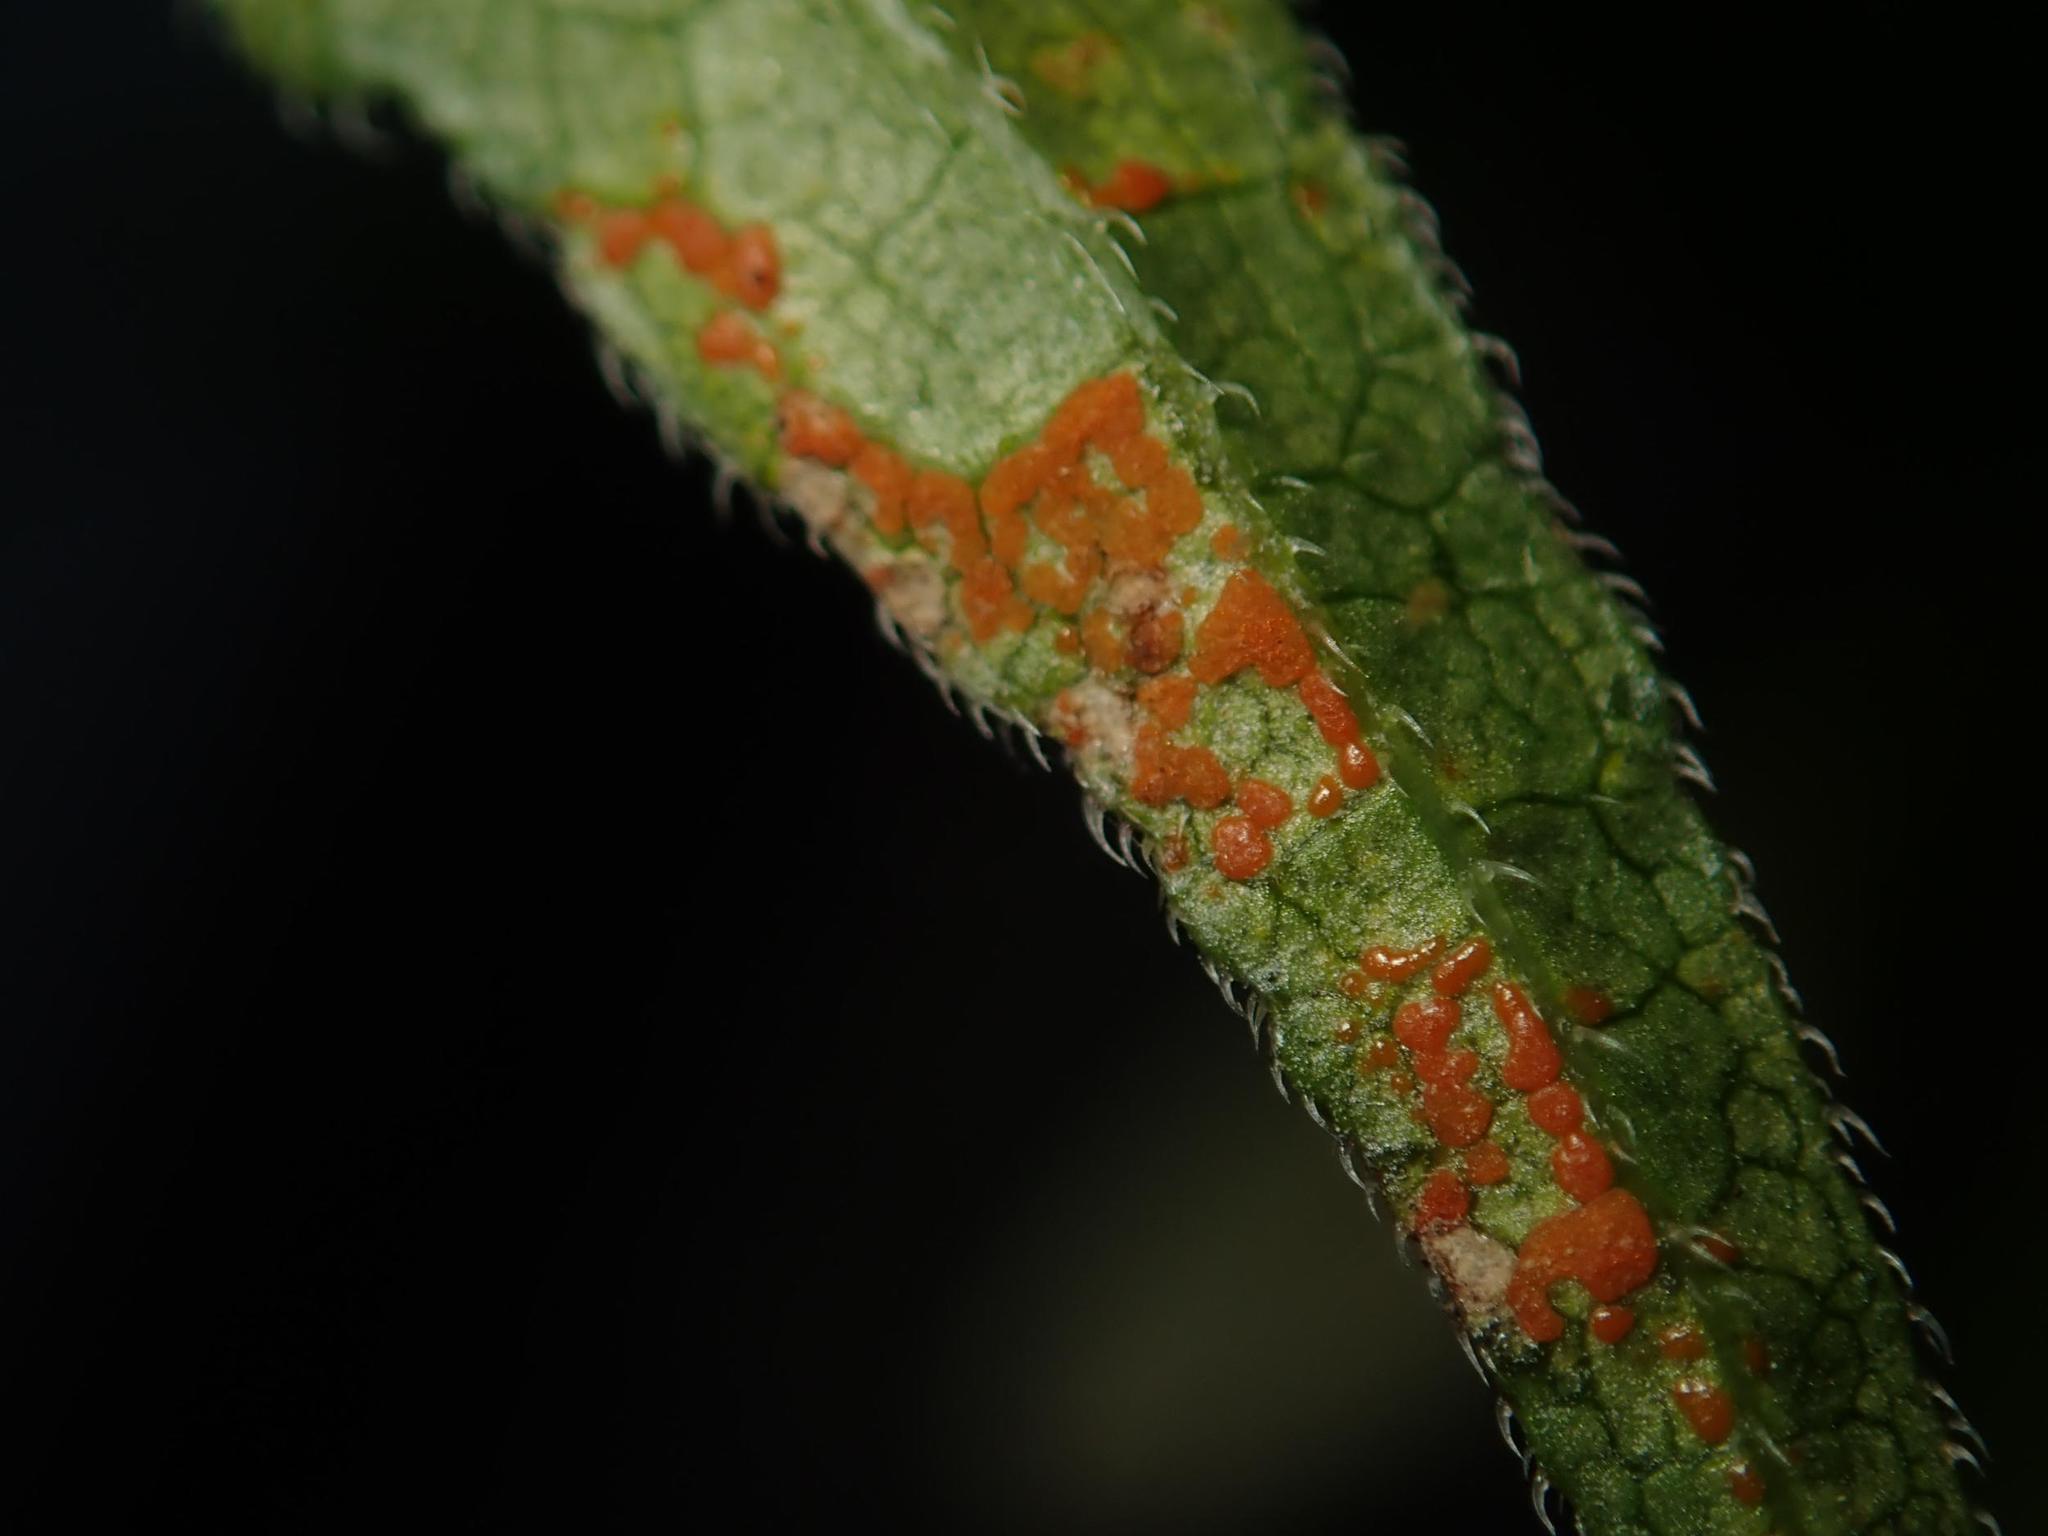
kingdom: Fungi
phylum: Basidiomycota
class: Pucciniomycetes
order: Pucciniales
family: Coleosporiaceae
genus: Coleosporium
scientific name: Coleosporium campanulae
